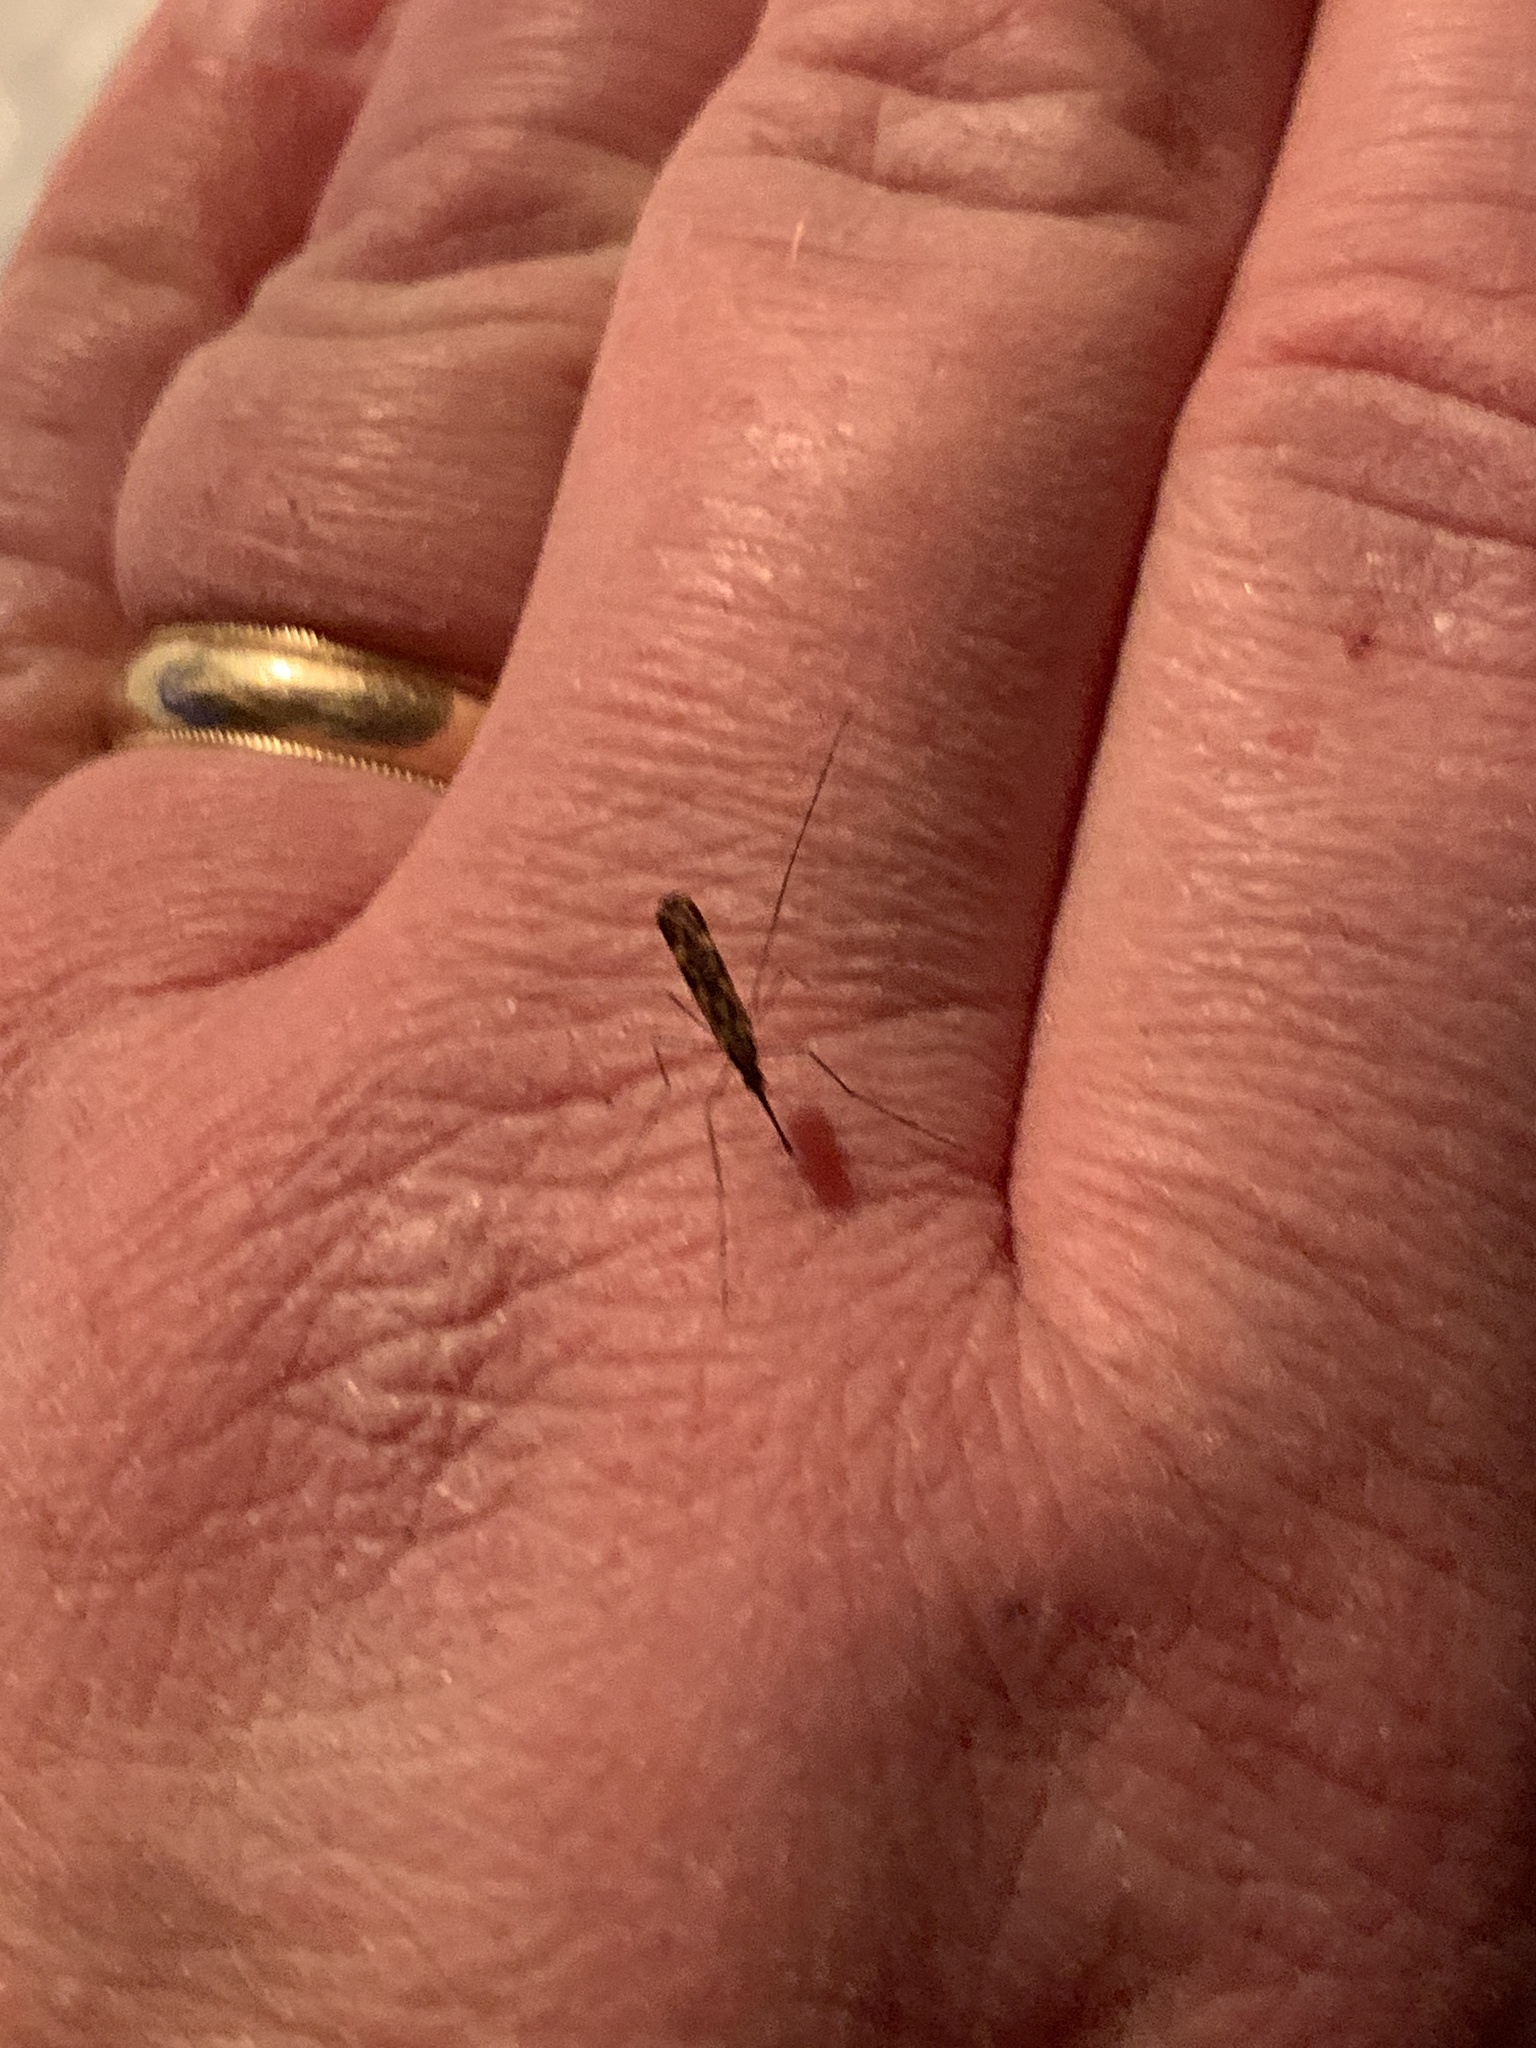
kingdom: Animalia
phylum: Arthropoda
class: Insecta
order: Diptera
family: Culicidae
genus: Anopheles
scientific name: Anopheles punctipennis
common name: Woodland malaria mosquito
